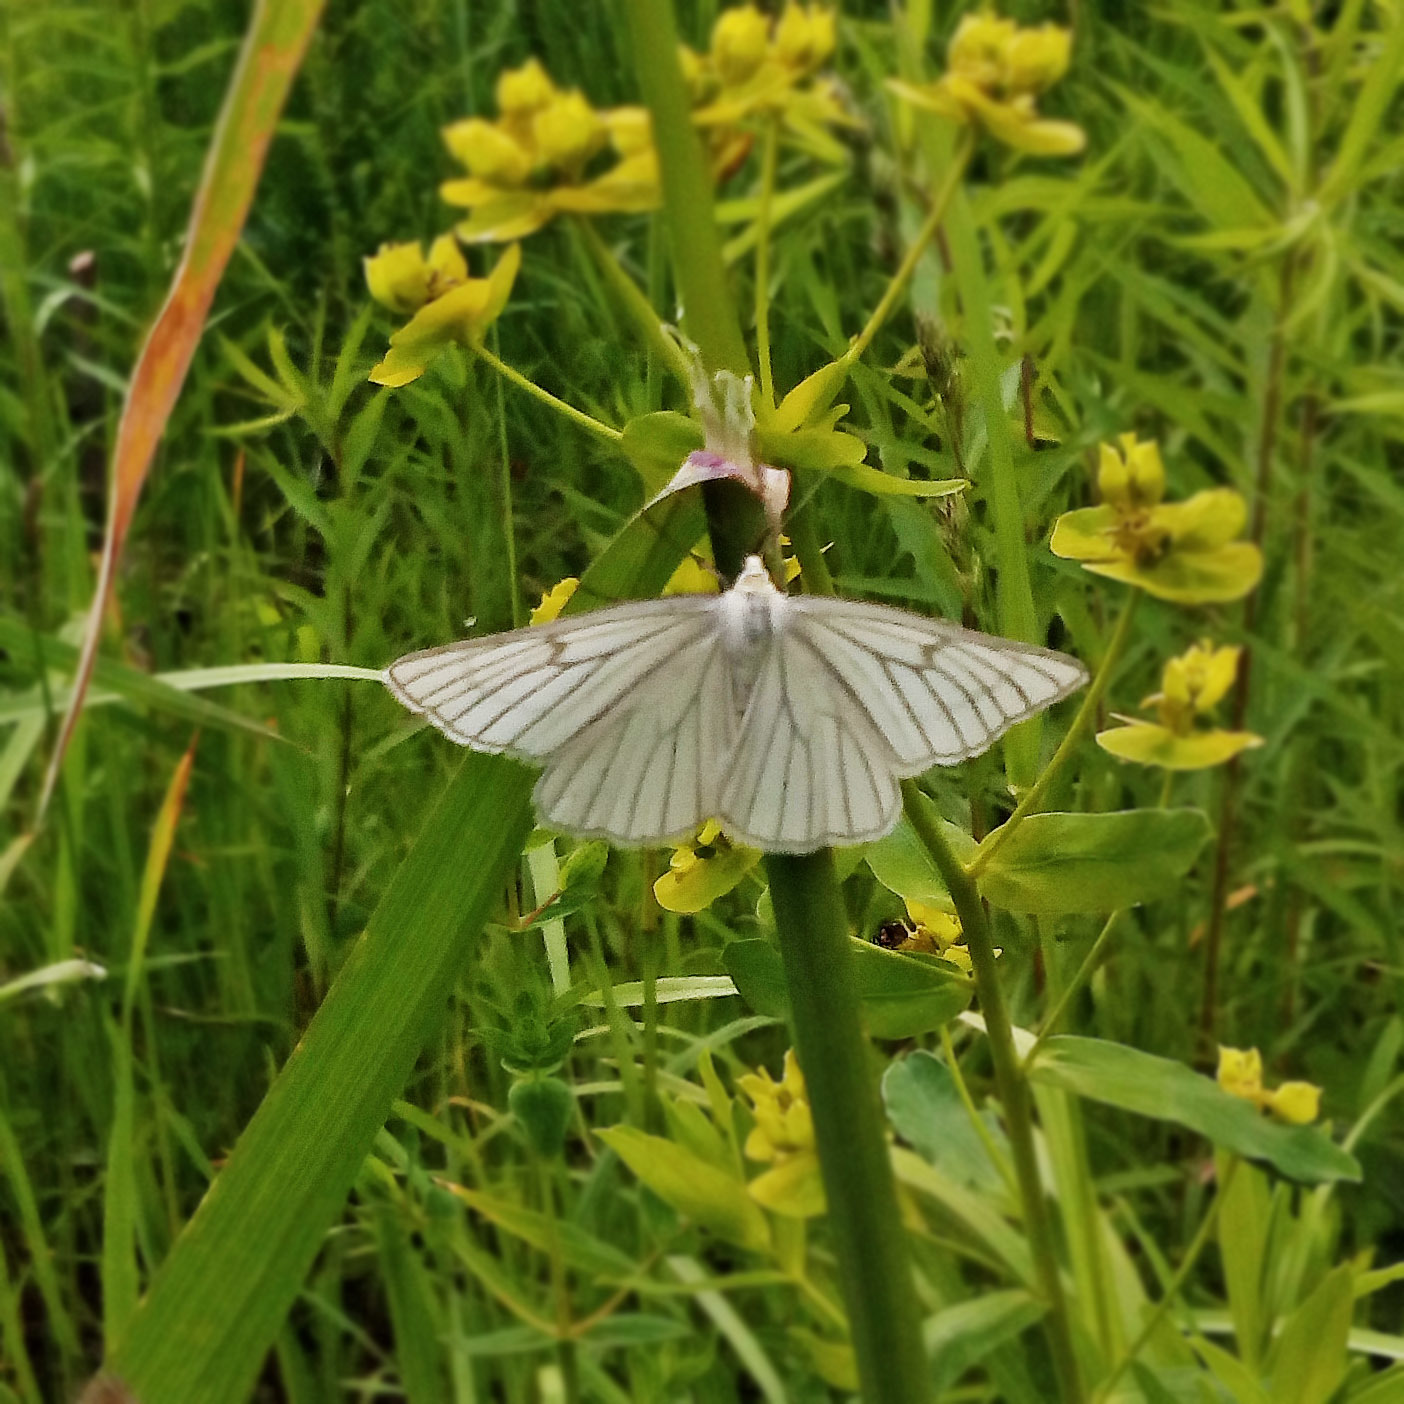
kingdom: Animalia
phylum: Arthropoda
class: Insecta
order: Lepidoptera
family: Geometridae
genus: Siona
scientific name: Siona lineata
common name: Black-veined moth
